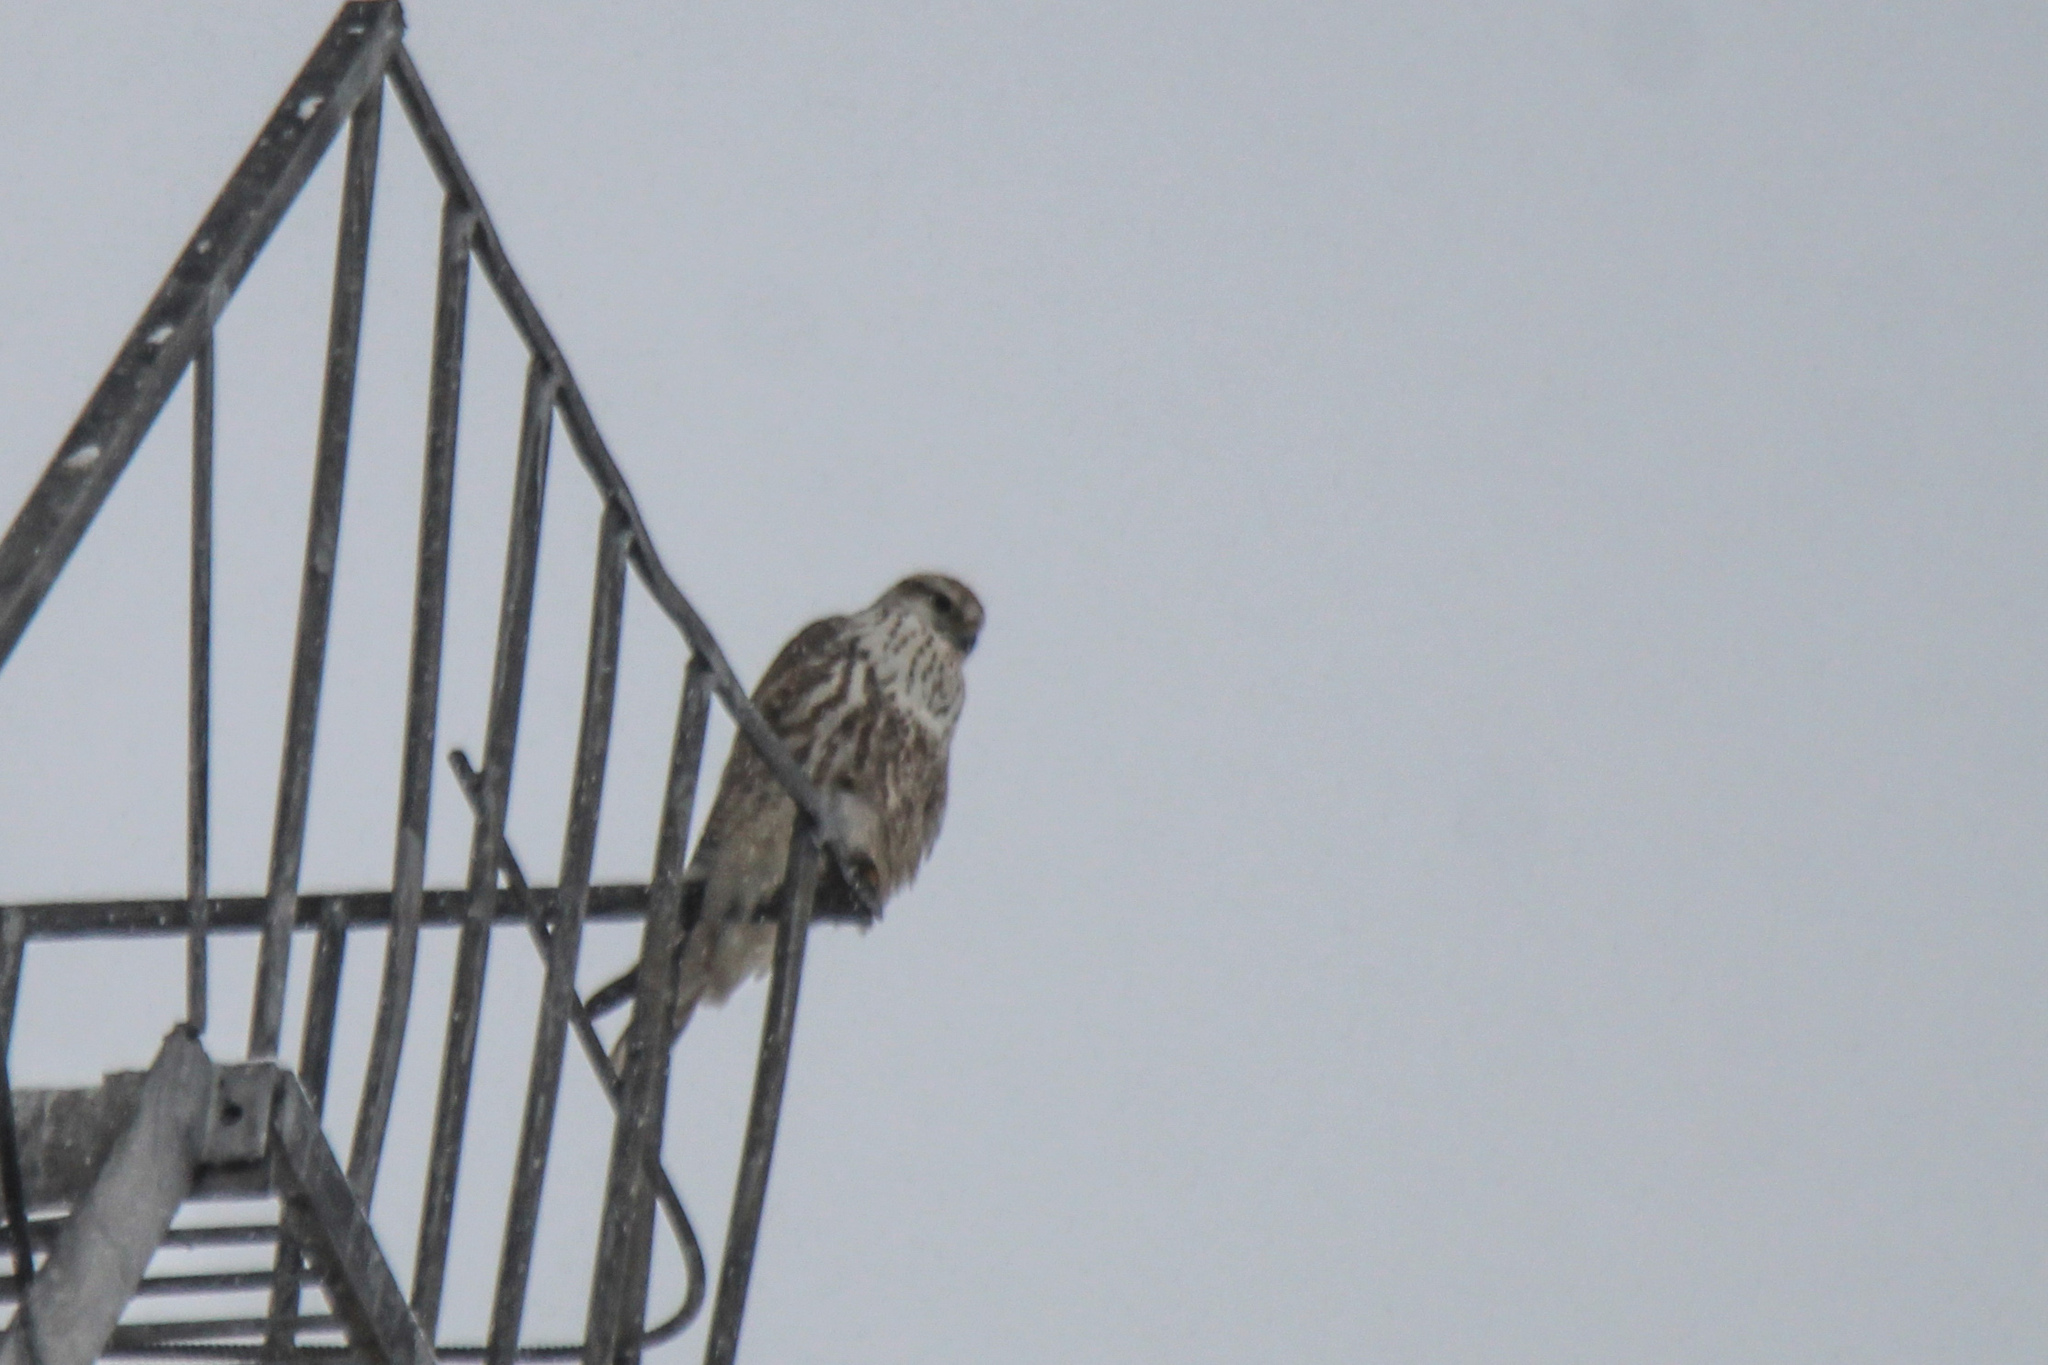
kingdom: Animalia
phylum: Chordata
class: Aves
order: Falconiformes
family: Falconidae
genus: Falco
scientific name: Falco cherrug
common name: Saker falcon
